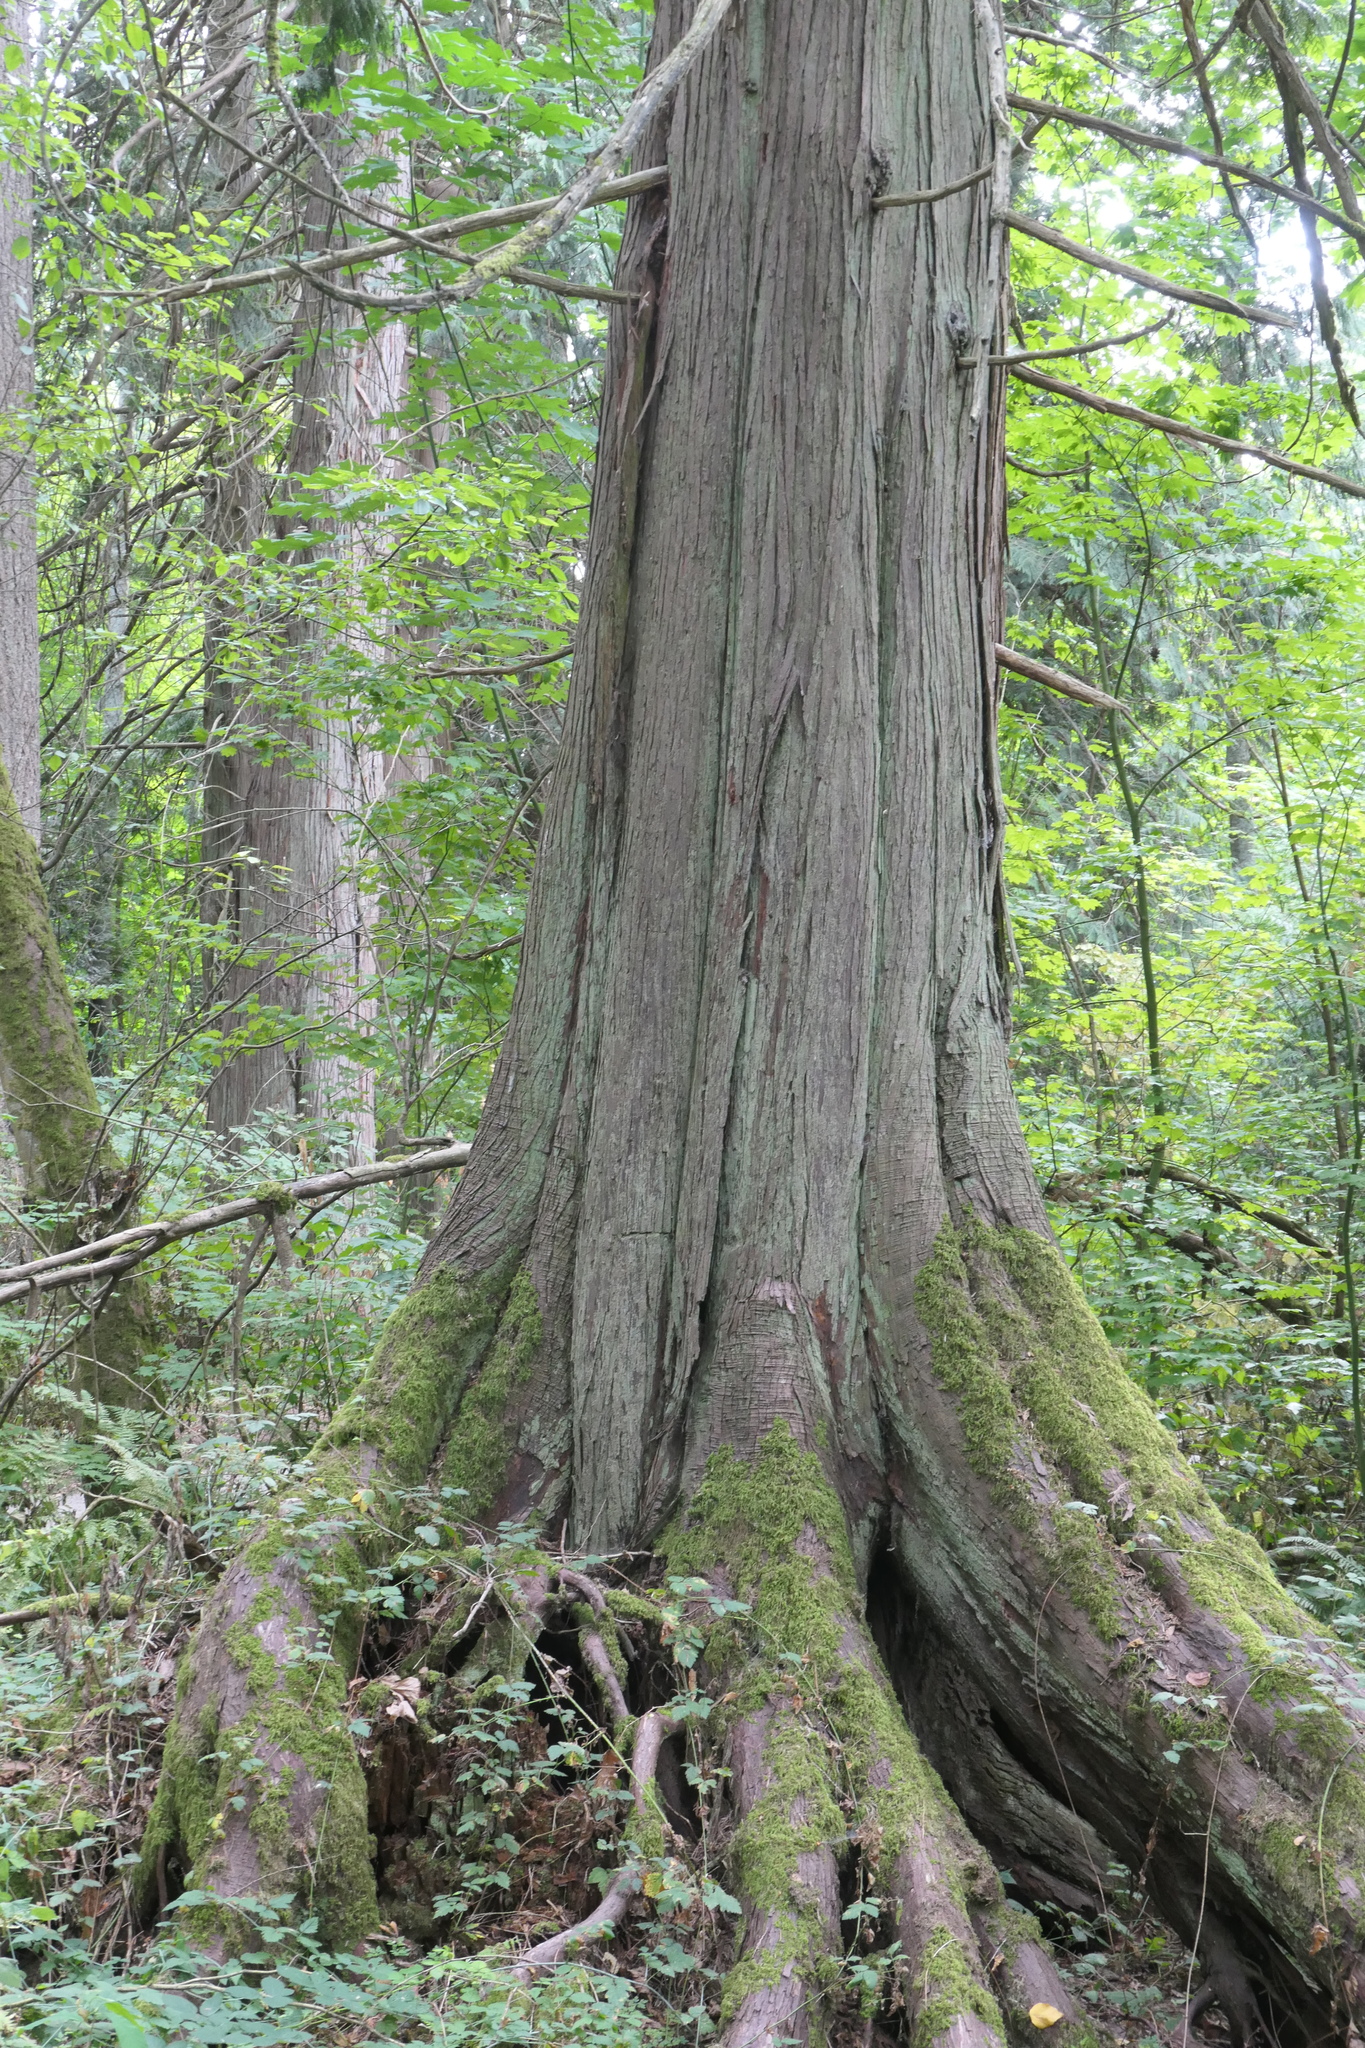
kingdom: Plantae
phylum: Tracheophyta
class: Pinopsida
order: Pinales
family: Cupressaceae
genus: Thuja
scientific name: Thuja plicata
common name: Western red-cedar
